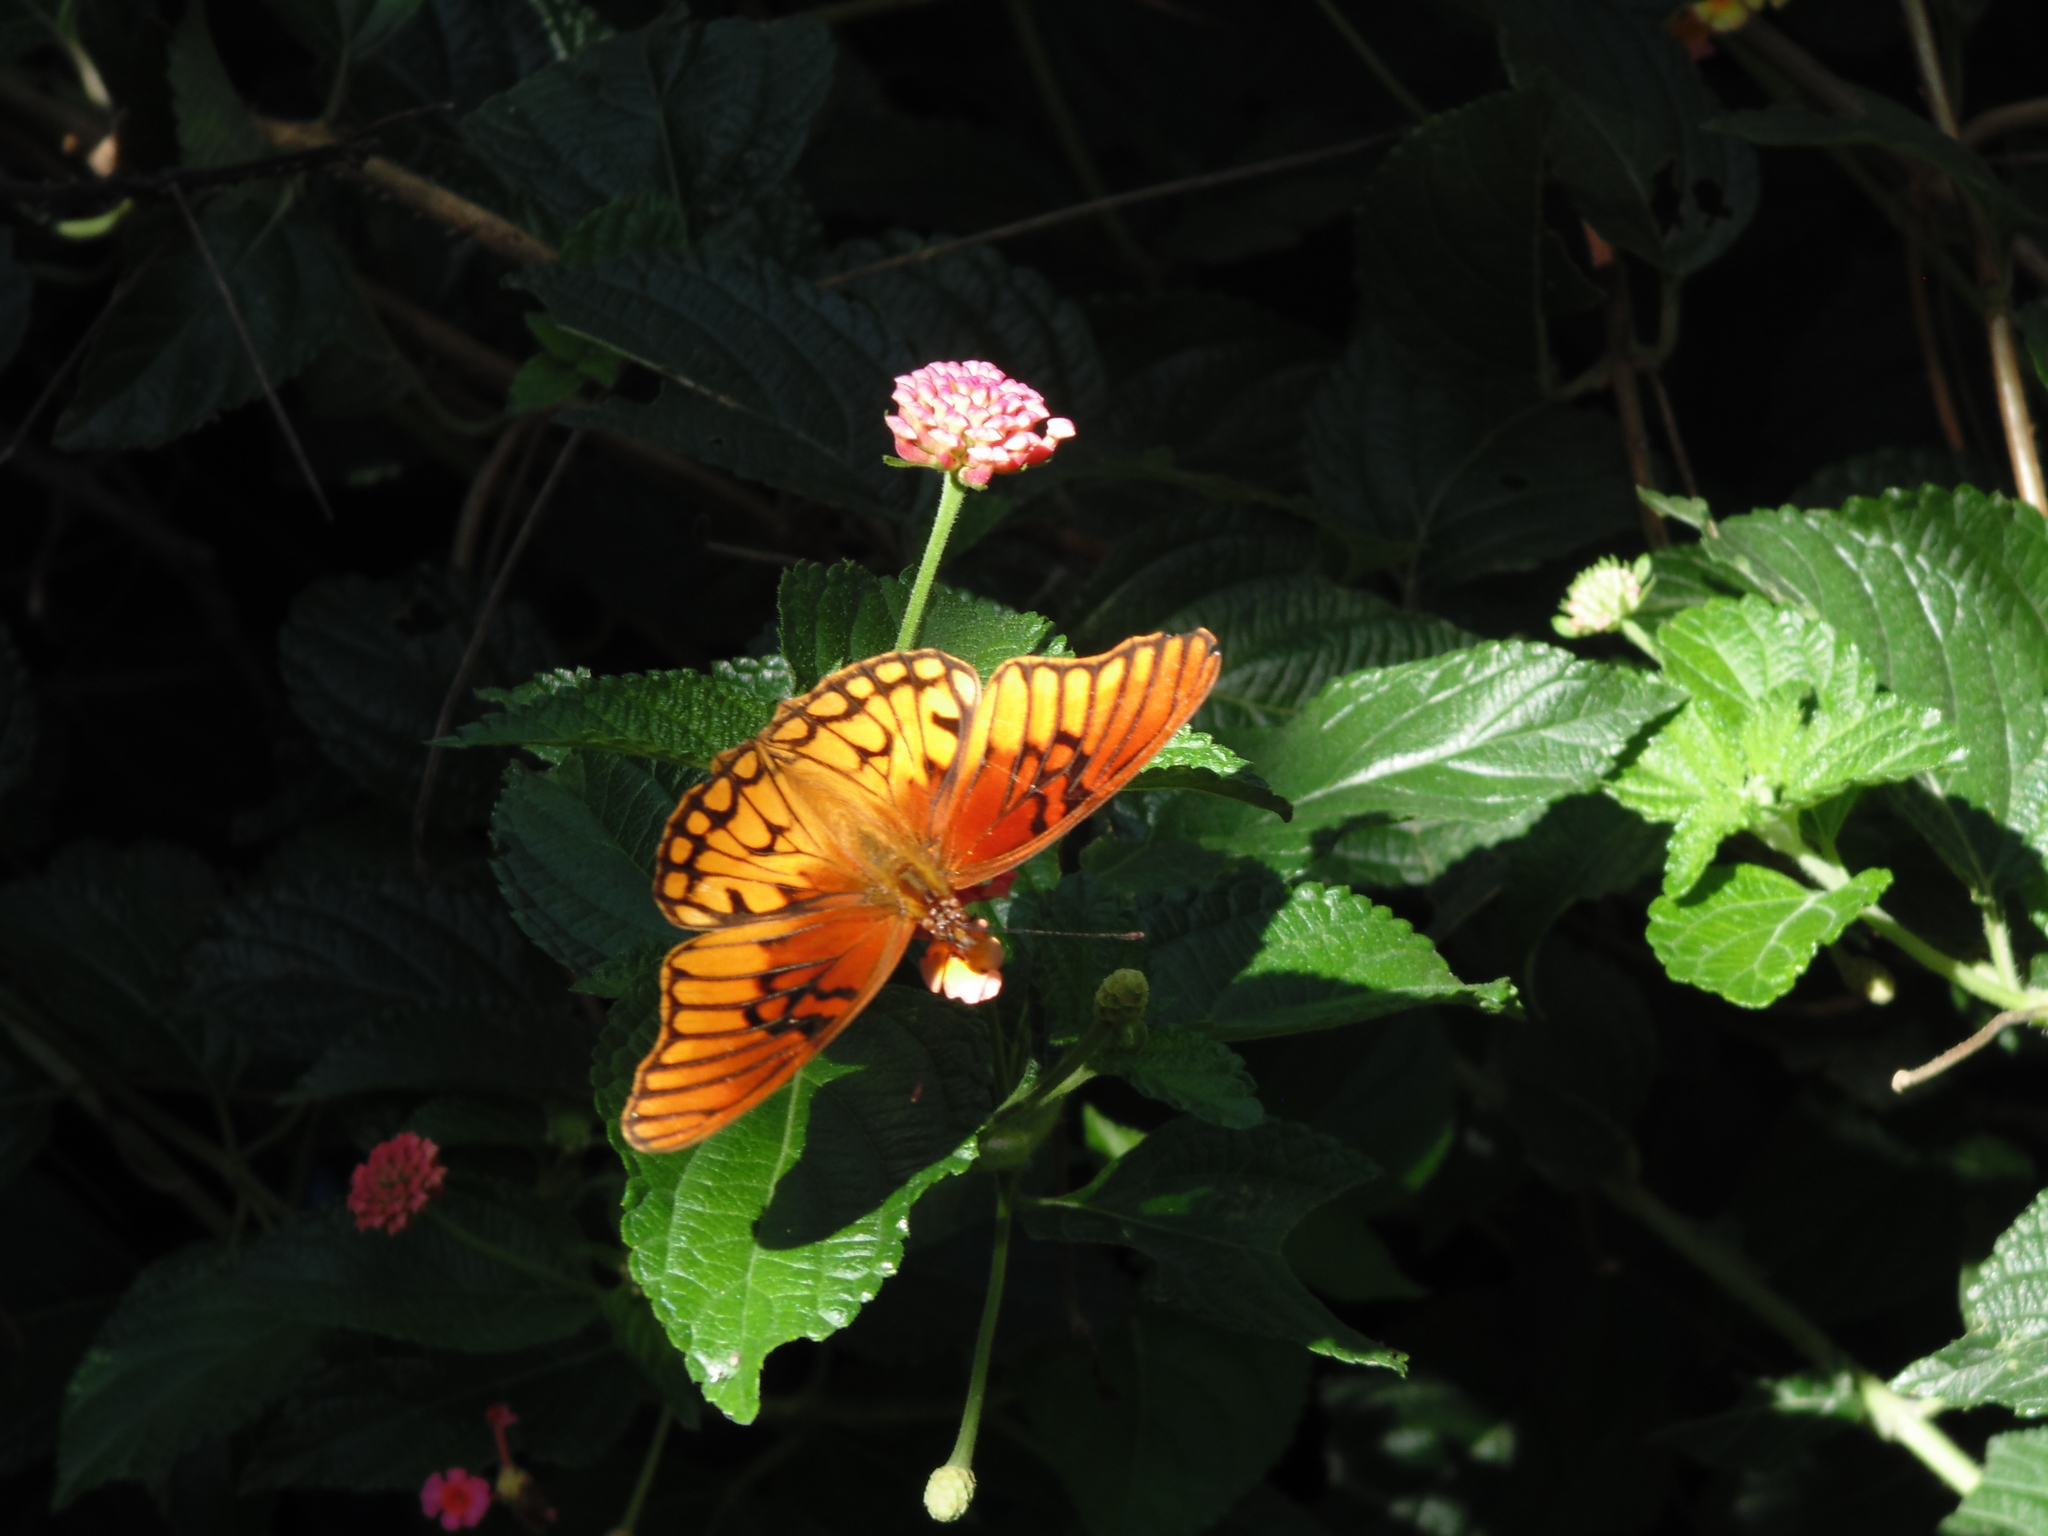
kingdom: Animalia
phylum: Arthropoda
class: Insecta
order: Lepidoptera
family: Nymphalidae
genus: Dione
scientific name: Dione moneta
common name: Mexican silverspot
